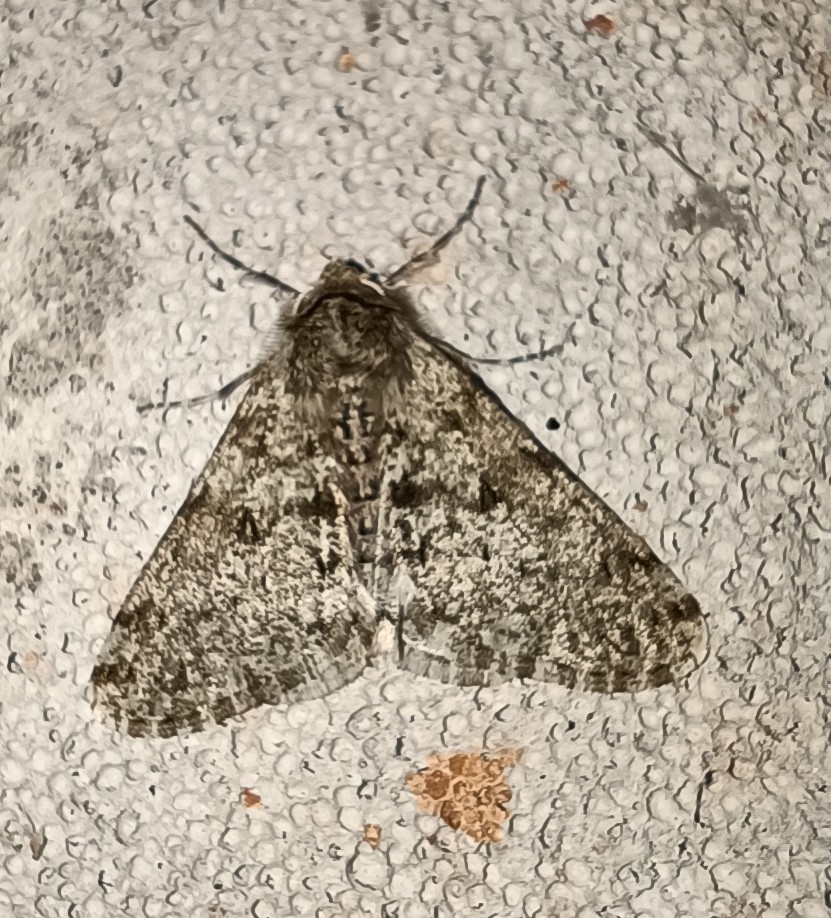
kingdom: Animalia
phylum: Arthropoda
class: Insecta
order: Lepidoptera
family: Geometridae
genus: Phigalia
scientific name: Phigalia pilosaria
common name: Pale brindled beauty
